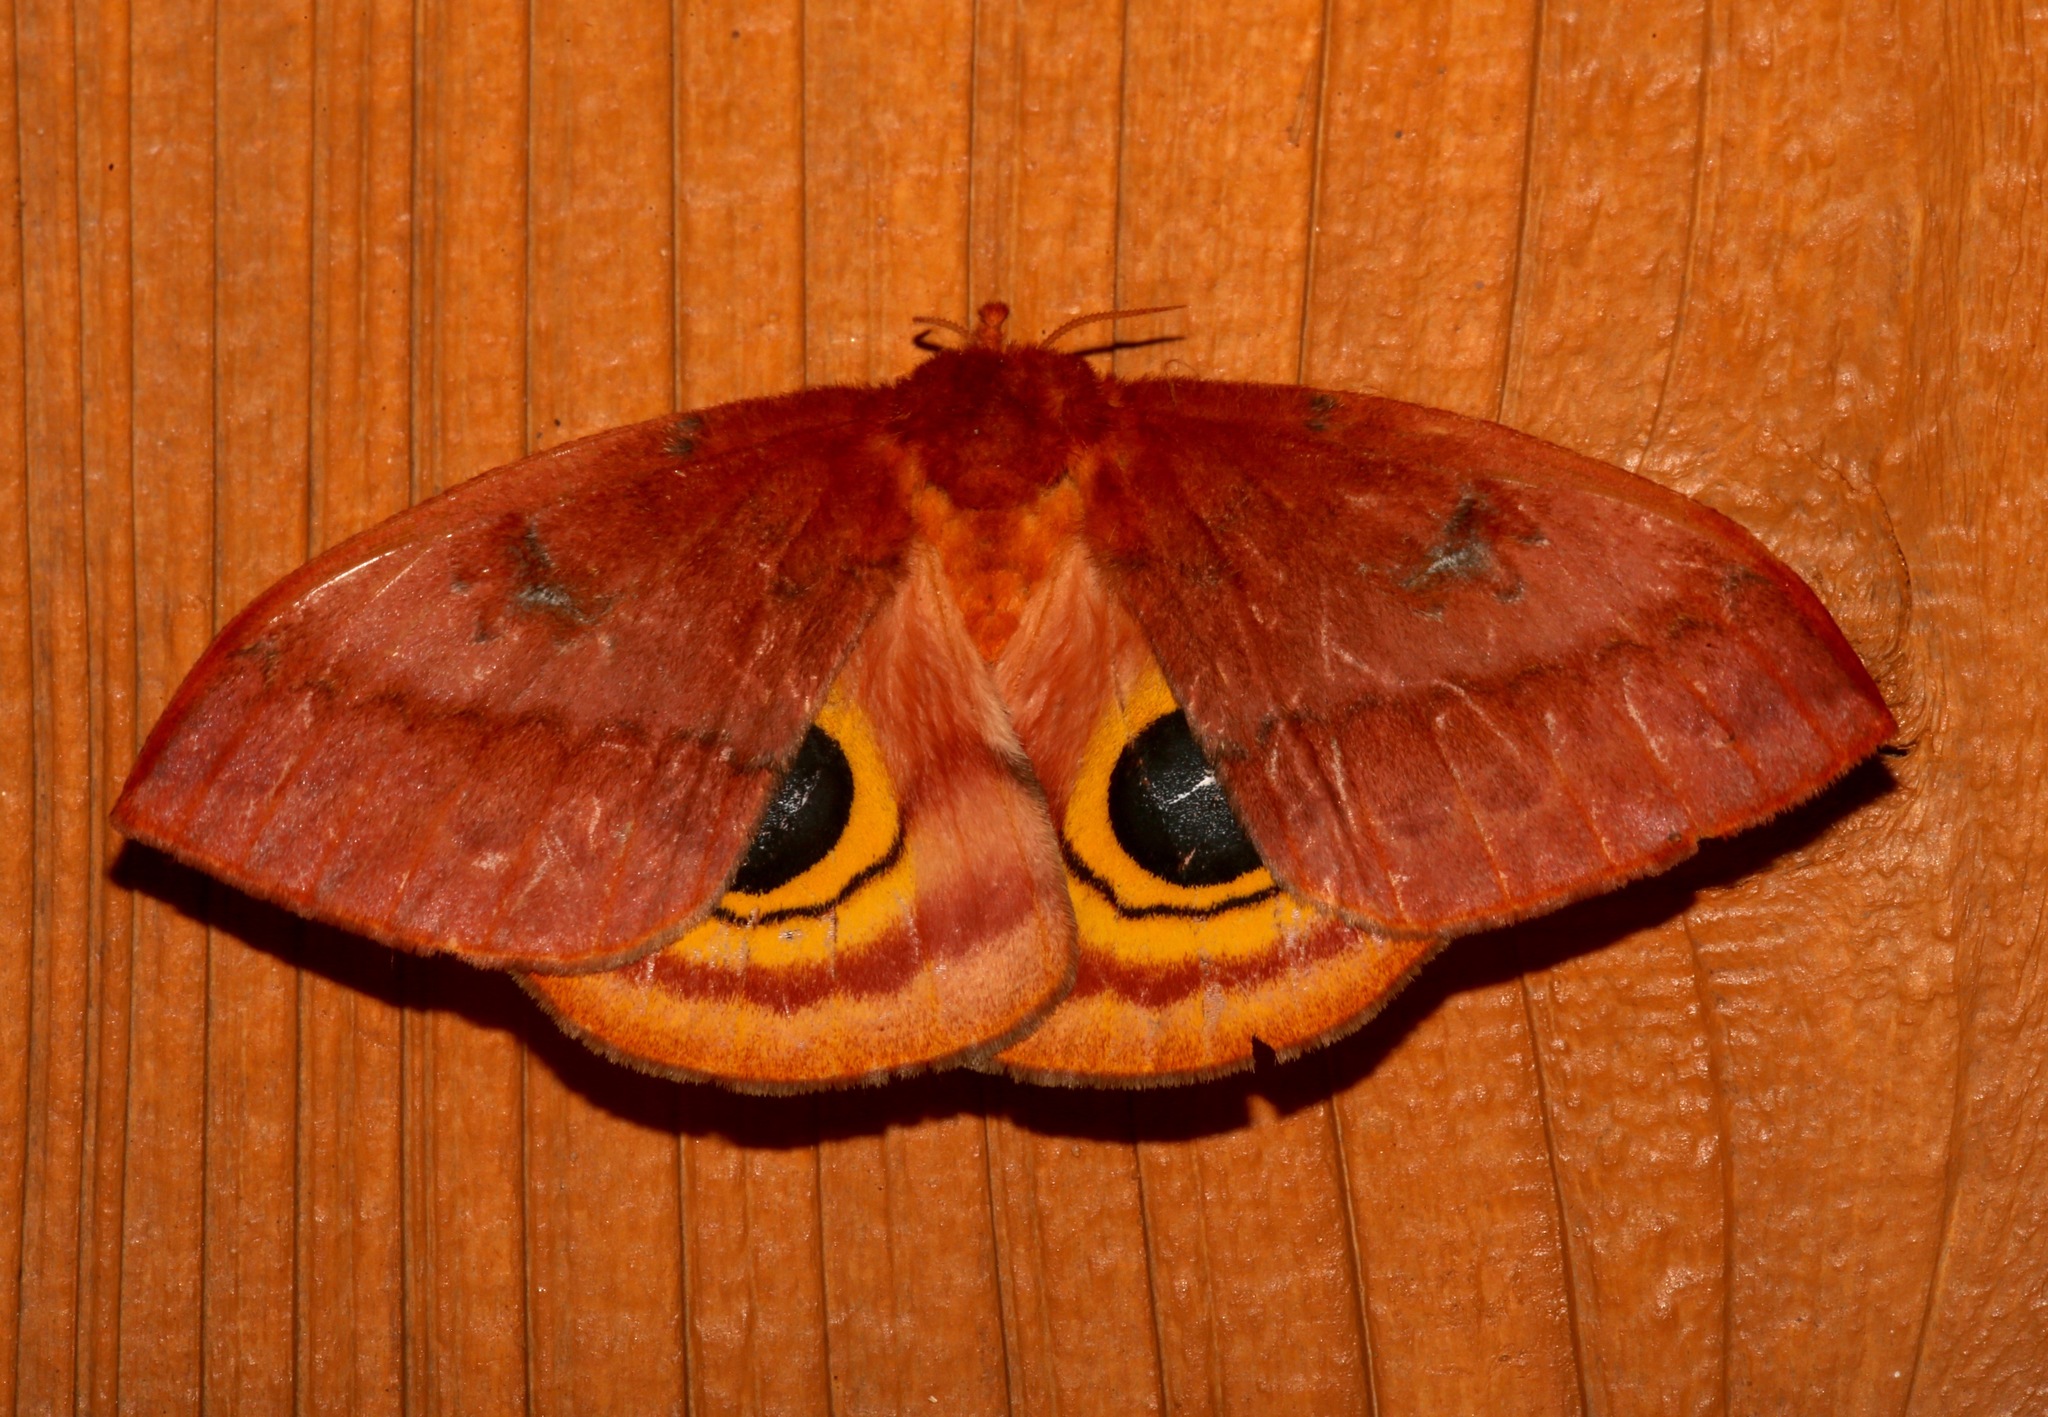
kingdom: Animalia
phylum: Arthropoda
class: Insecta
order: Lepidoptera
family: Saturniidae
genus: Automeris
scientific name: Automeris io
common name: Io moth
